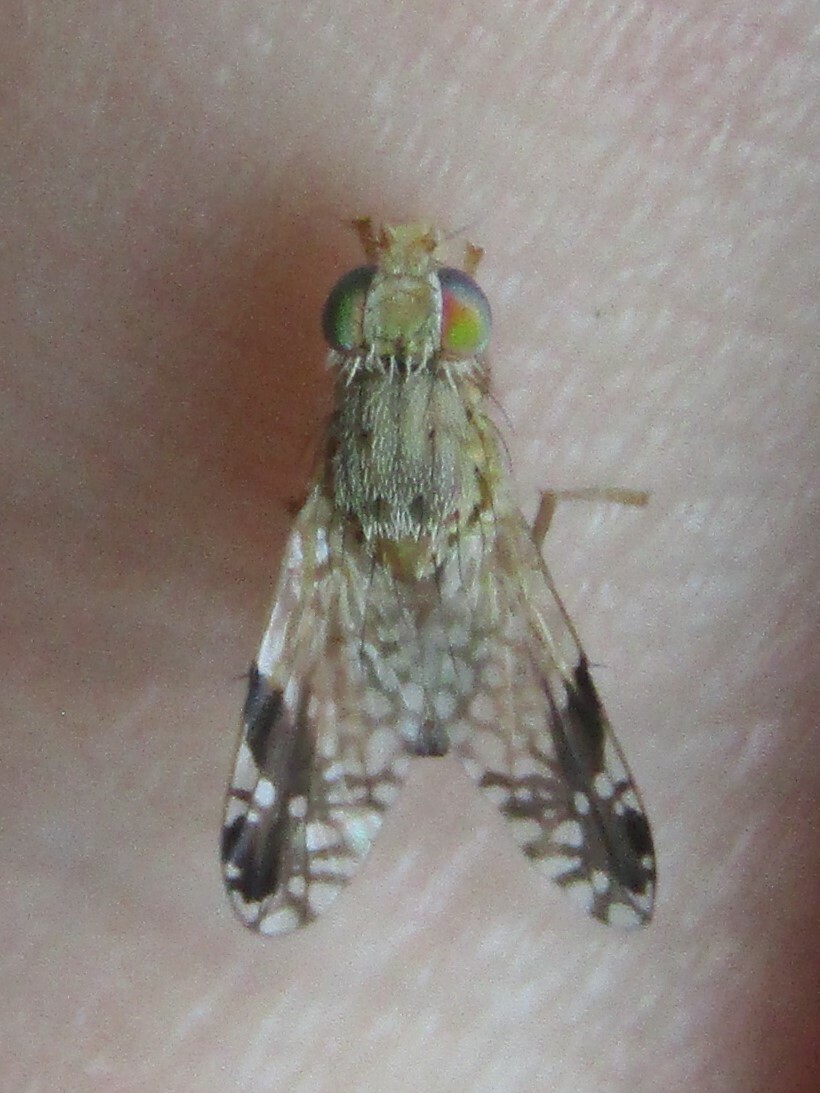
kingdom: Animalia
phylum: Arthropoda
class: Insecta
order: Diptera
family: Tephritidae
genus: Tephritis
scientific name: Tephritis subpura
